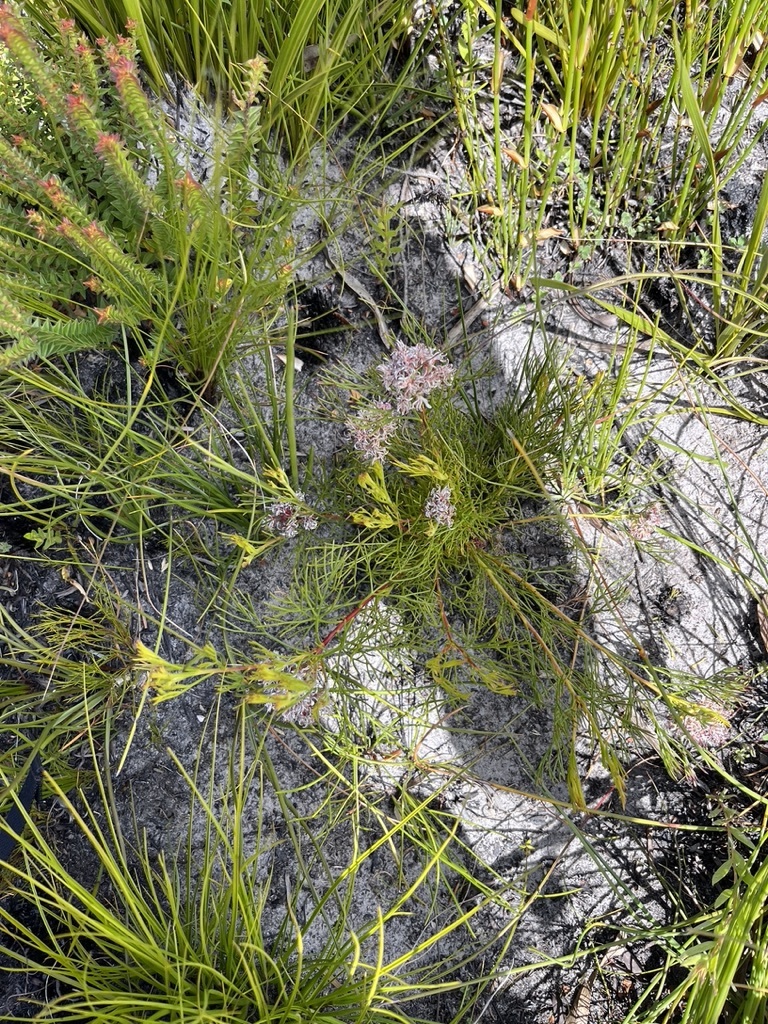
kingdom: Plantae
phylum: Tracheophyta
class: Magnoliopsida
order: Proteales
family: Proteaceae
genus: Serruria
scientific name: Serruria rubricaulis
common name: Red-stem spiderhead
